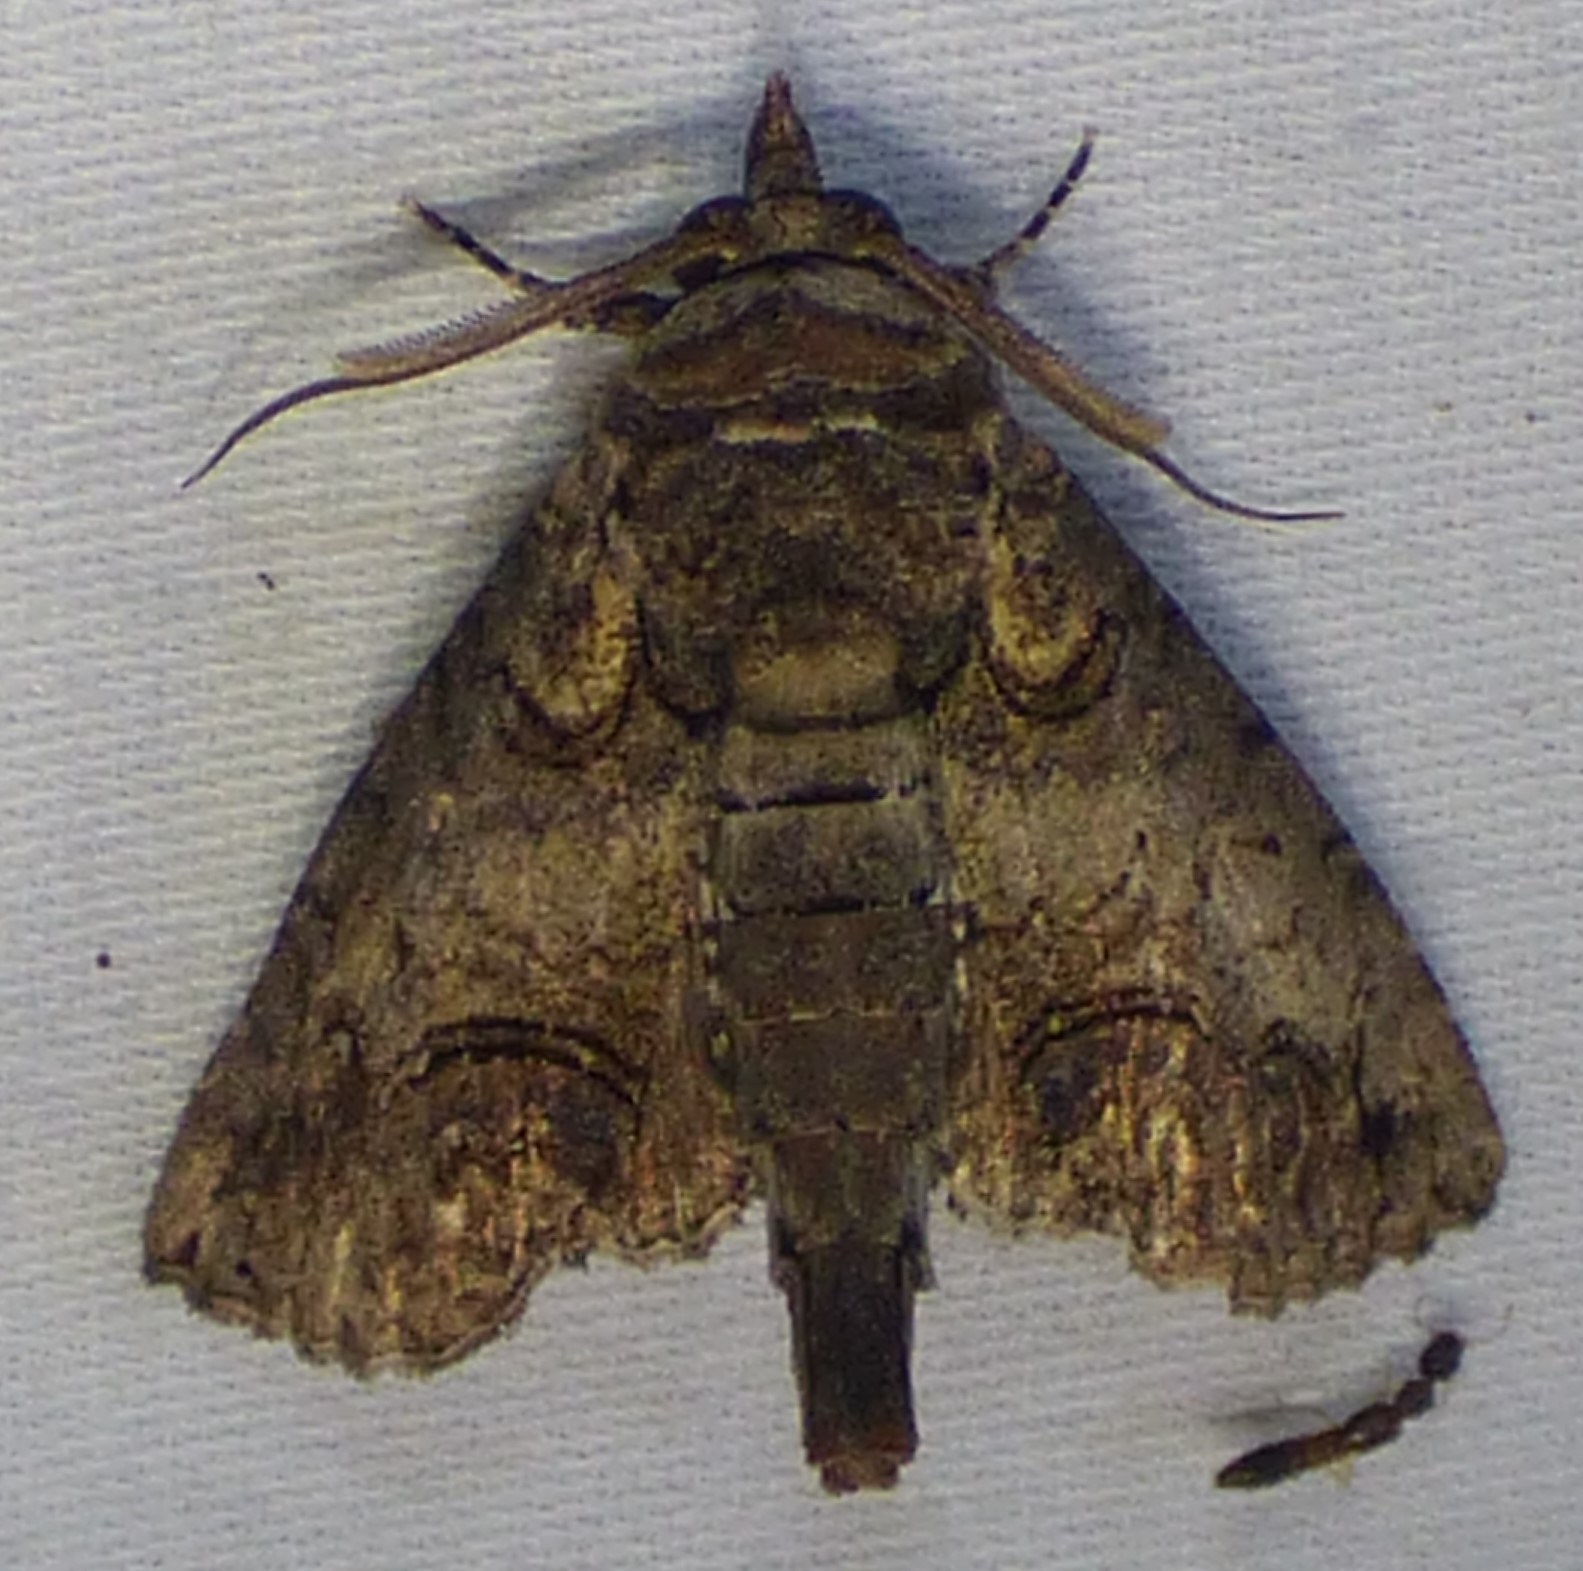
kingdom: Animalia
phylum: Arthropoda
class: Insecta
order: Lepidoptera
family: Euteliidae
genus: Paectes
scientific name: Paectes abrostoloides
